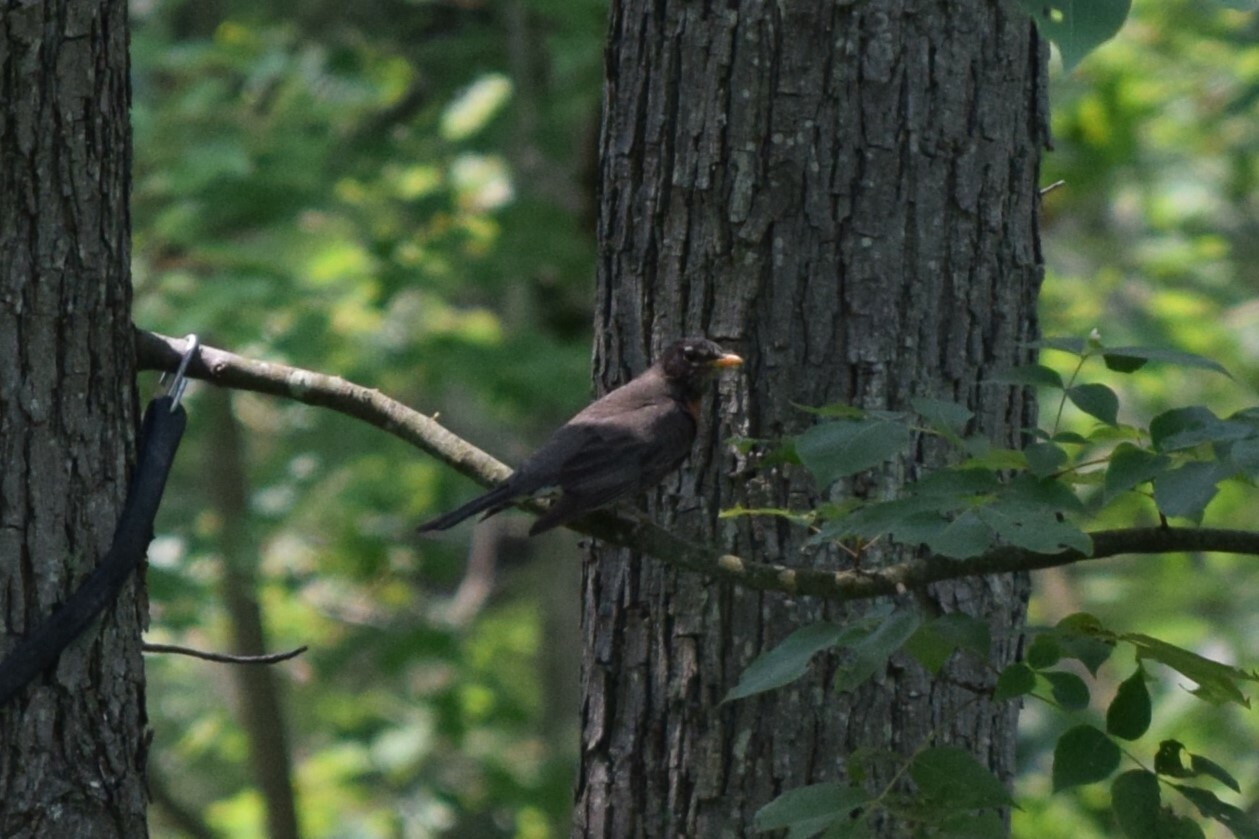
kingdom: Animalia
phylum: Chordata
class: Aves
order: Passeriformes
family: Turdidae
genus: Turdus
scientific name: Turdus migratorius
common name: American robin
